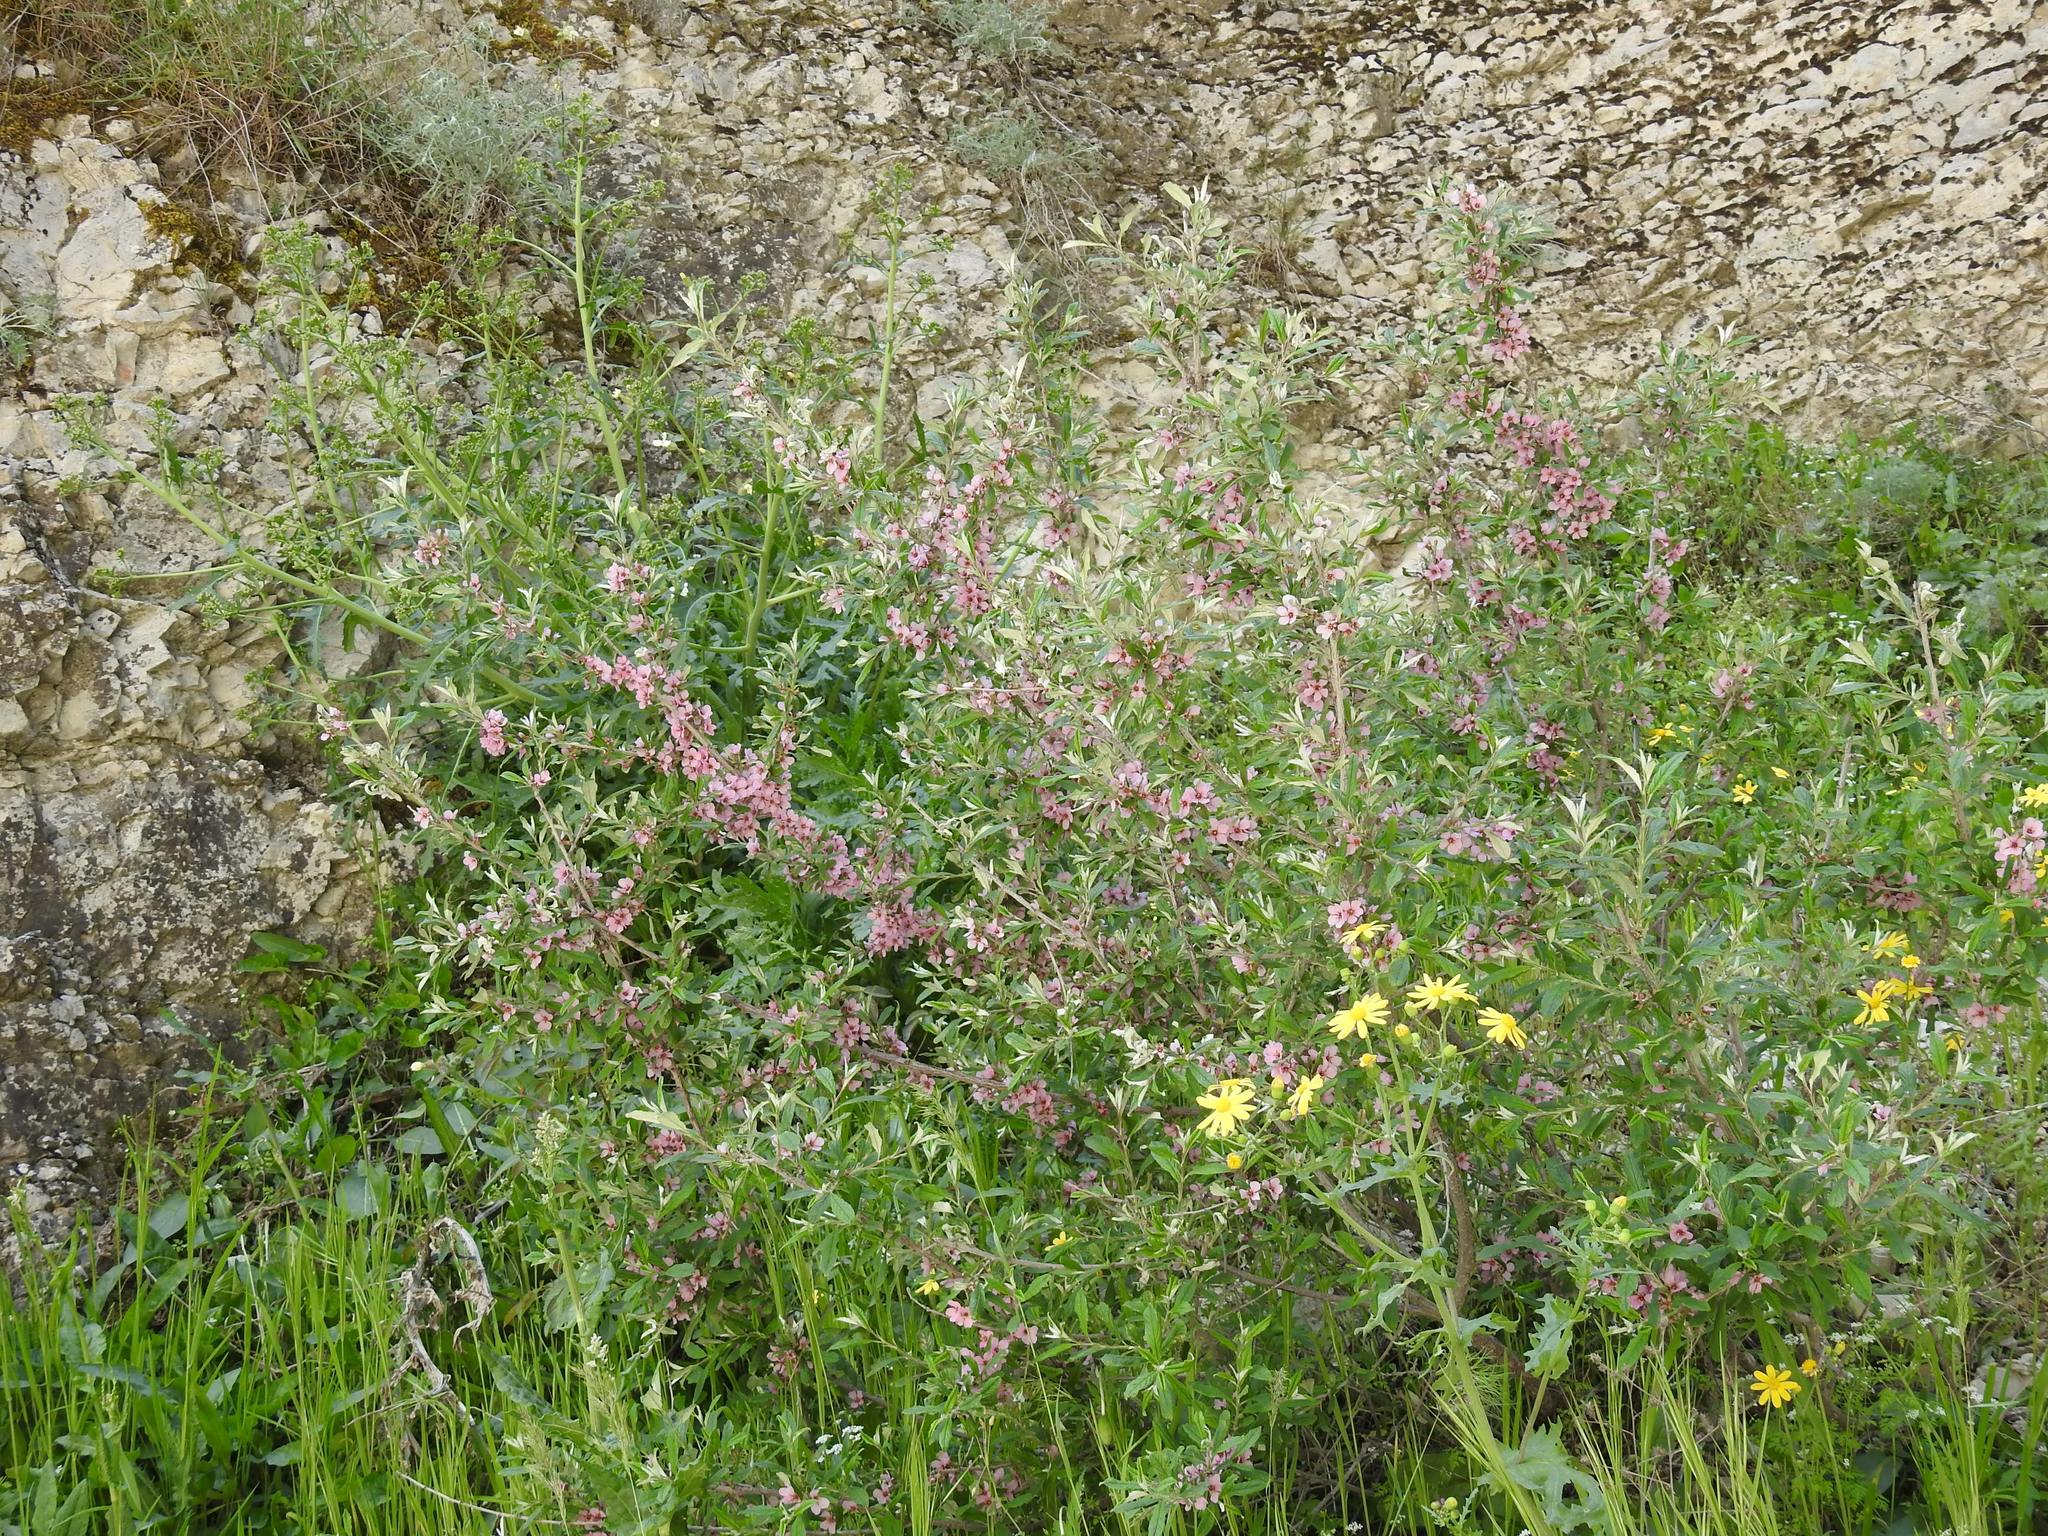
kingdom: Plantae
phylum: Tracheophyta
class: Magnoliopsida
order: Rosales
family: Rosaceae
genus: Prunus
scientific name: Prunus incana
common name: Willow cherry
